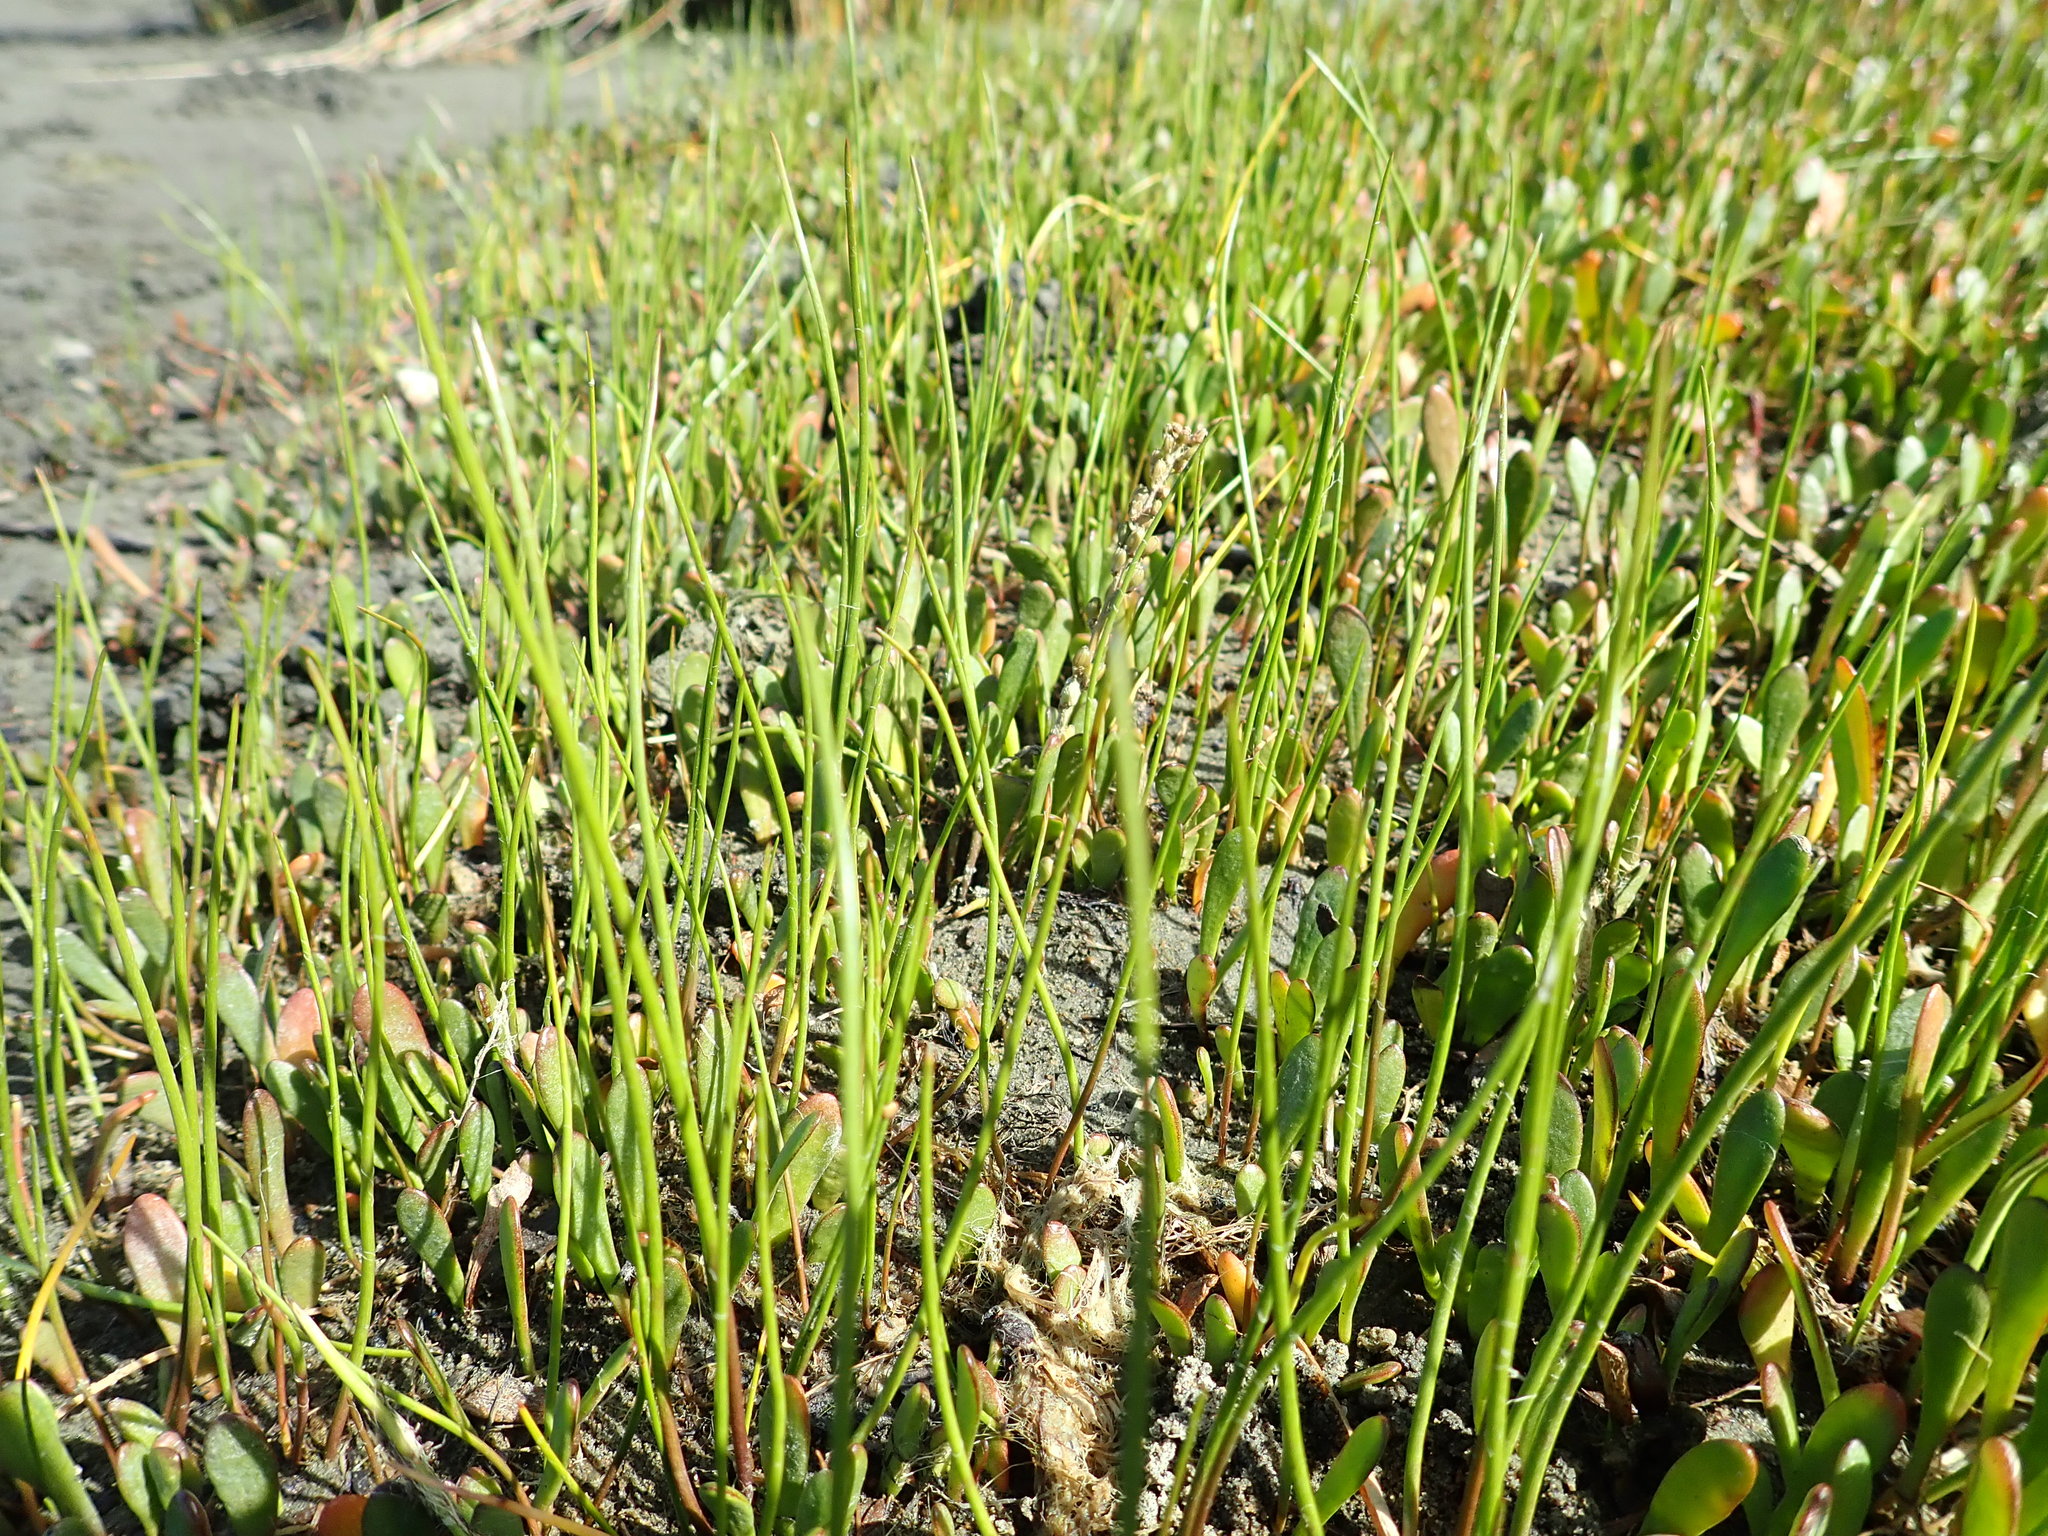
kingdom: Plantae
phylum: Tracheophyta
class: Liliopsida
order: Alismatales
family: Juncaginaceae
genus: Triglochin
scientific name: Triglochin striata
